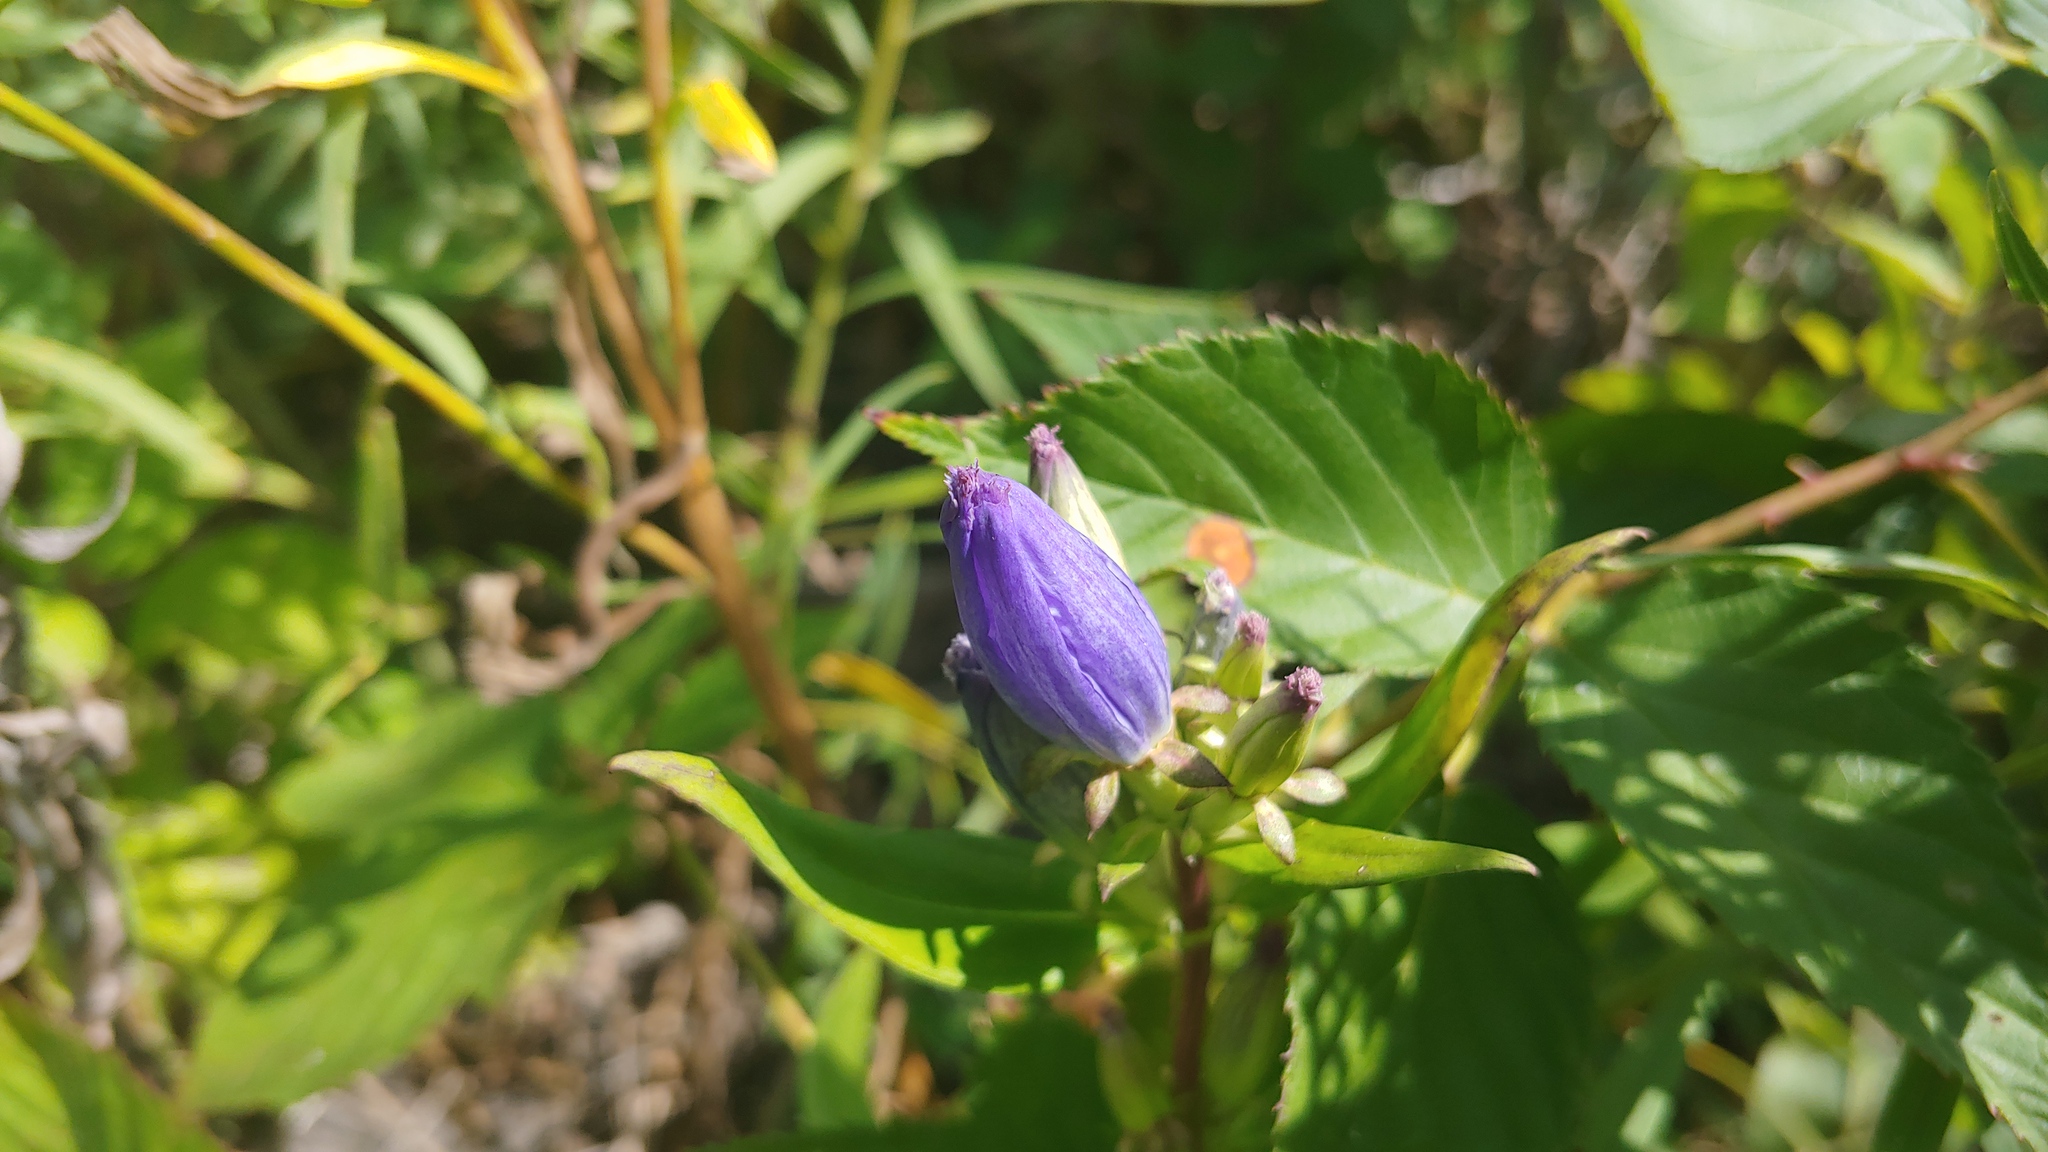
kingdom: Plantae
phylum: Tracheophyta
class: Magnoliopsida
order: Gentianales
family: Gentianaceae
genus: Gentiana
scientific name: Gentiana andrewsii
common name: Bottle gentian
